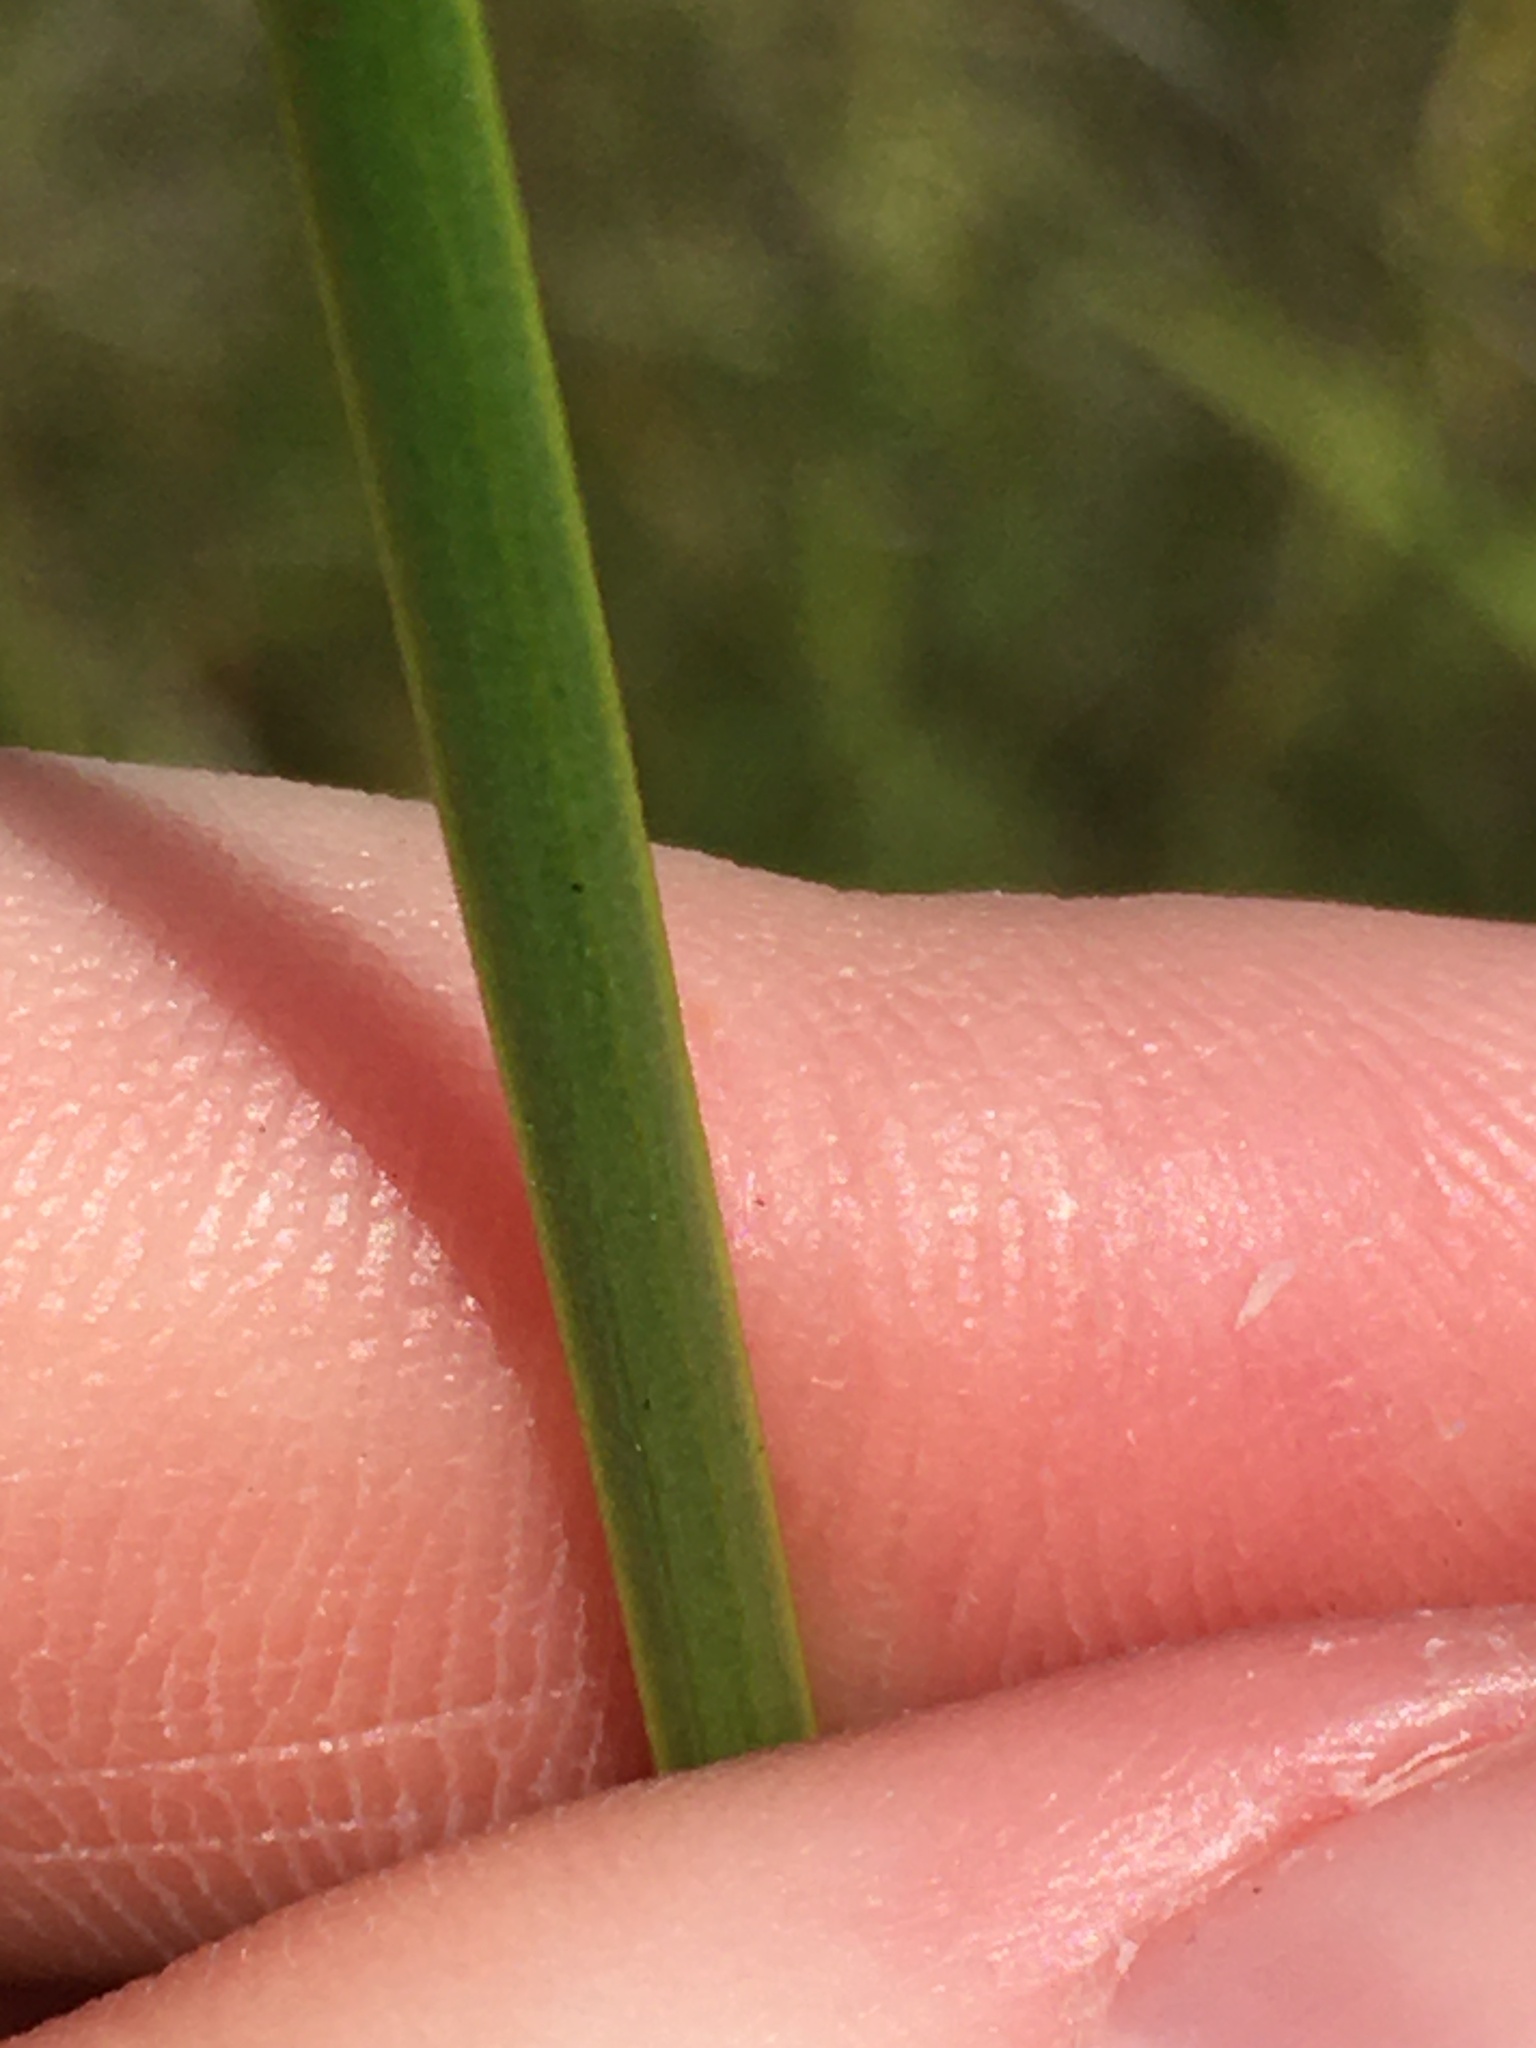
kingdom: Plantae
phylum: Tracheophyta
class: Liliopsida
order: Poales
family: Xyridaceae
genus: Xyris
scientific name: Xyris ambigua
